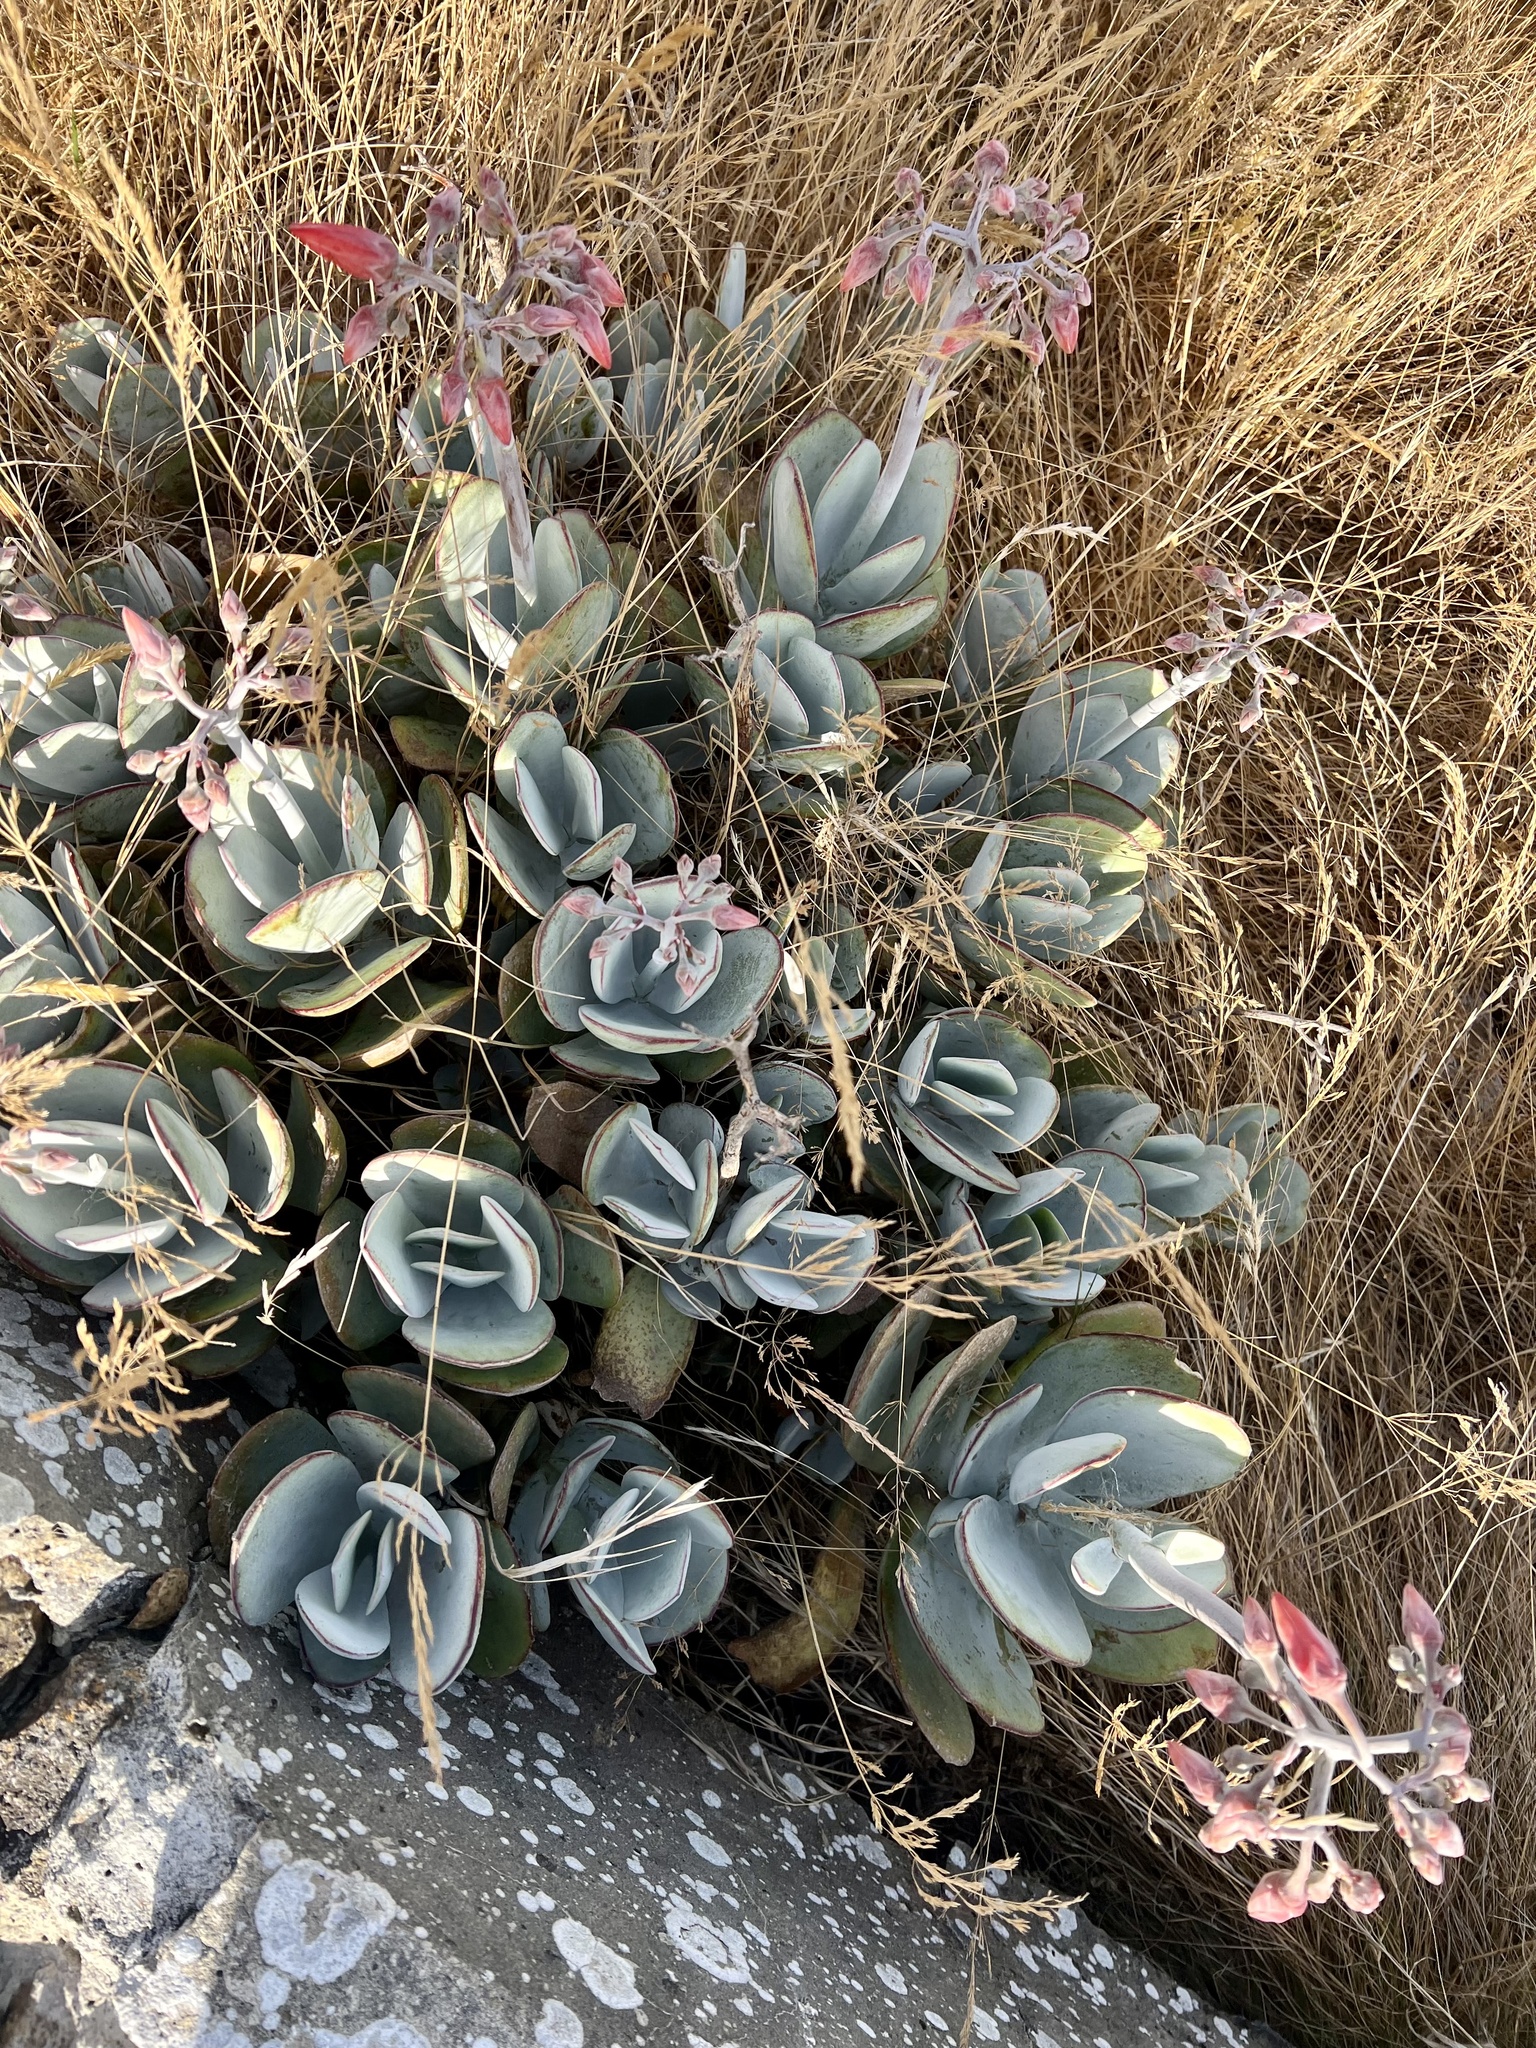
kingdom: Plantae
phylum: Tracheophyta
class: Magnoliopsida
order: Saxifragales
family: Crassulaceae
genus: Cotyledon
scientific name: Cotyledon orbiculata
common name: Pig's ear
